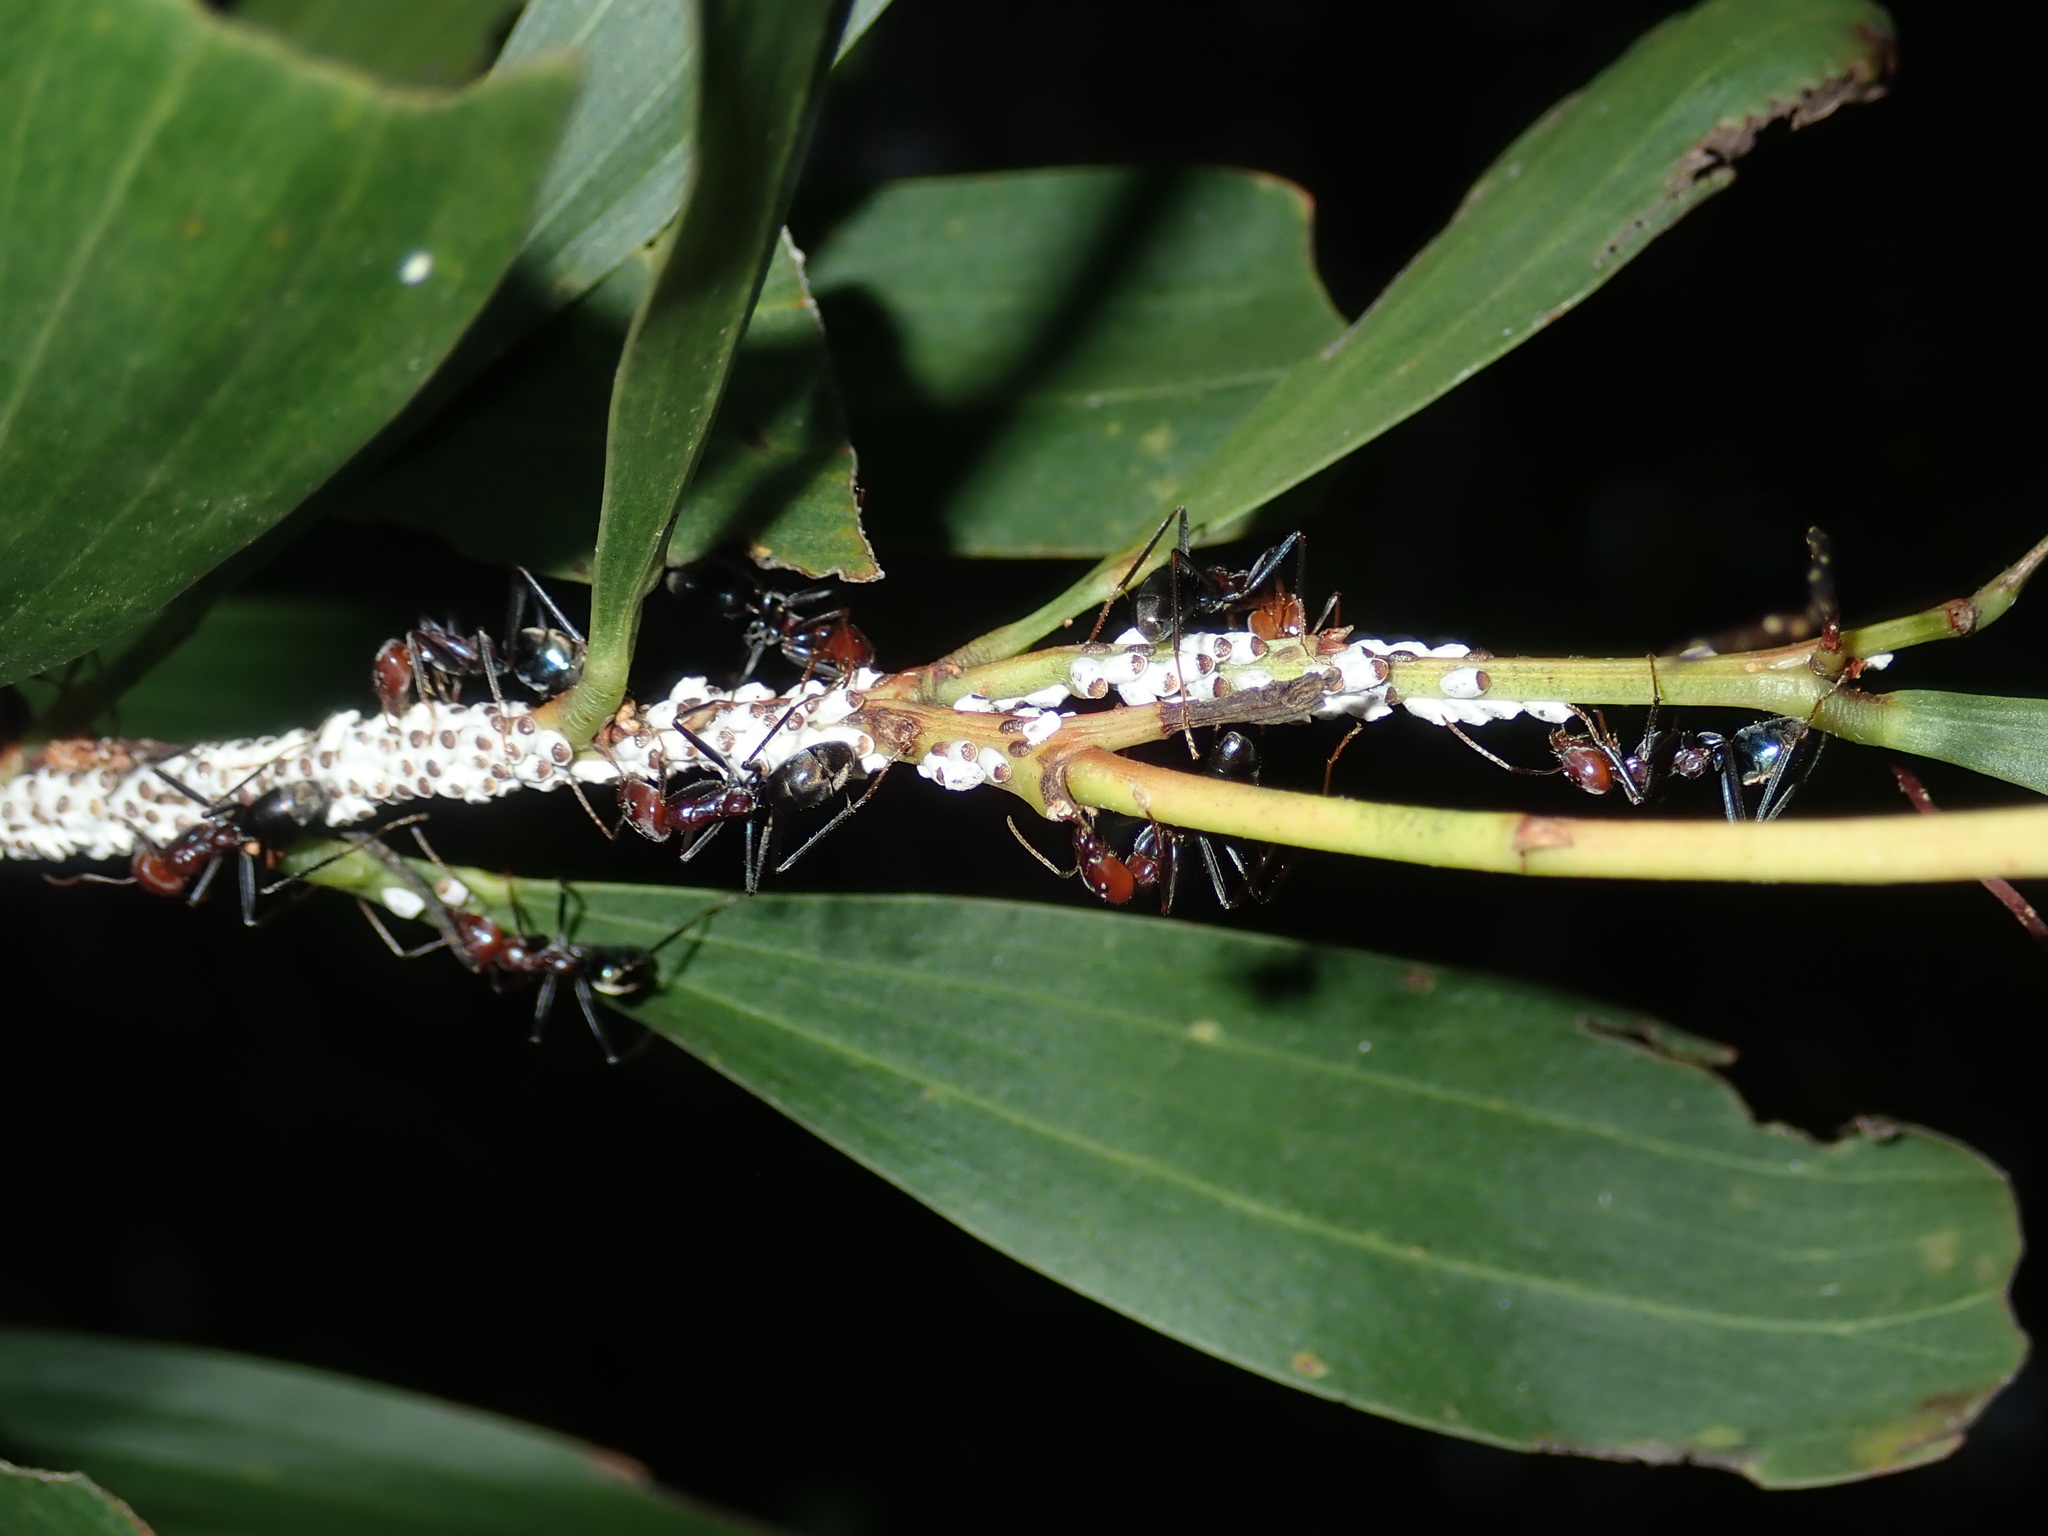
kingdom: Animalia
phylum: Arthropoda
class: Insecta
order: Hemiptera
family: Coccidae
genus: Cryptes
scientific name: Cryptes baccatus
